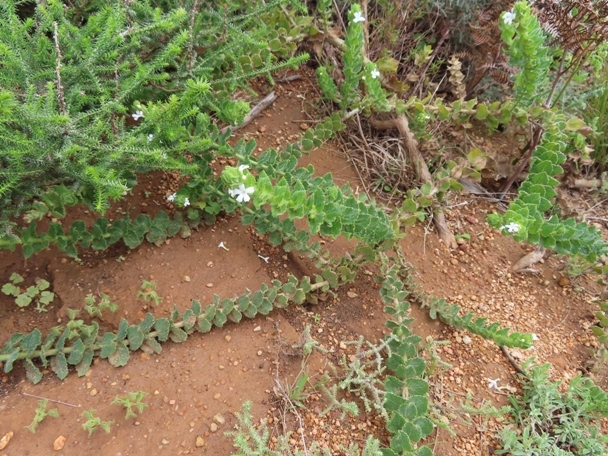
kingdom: Plantae
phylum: Tracheophyta
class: Magnoliopsida
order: Lamiales
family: Scrophulariaceae
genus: Oftia
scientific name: Oftia africana
